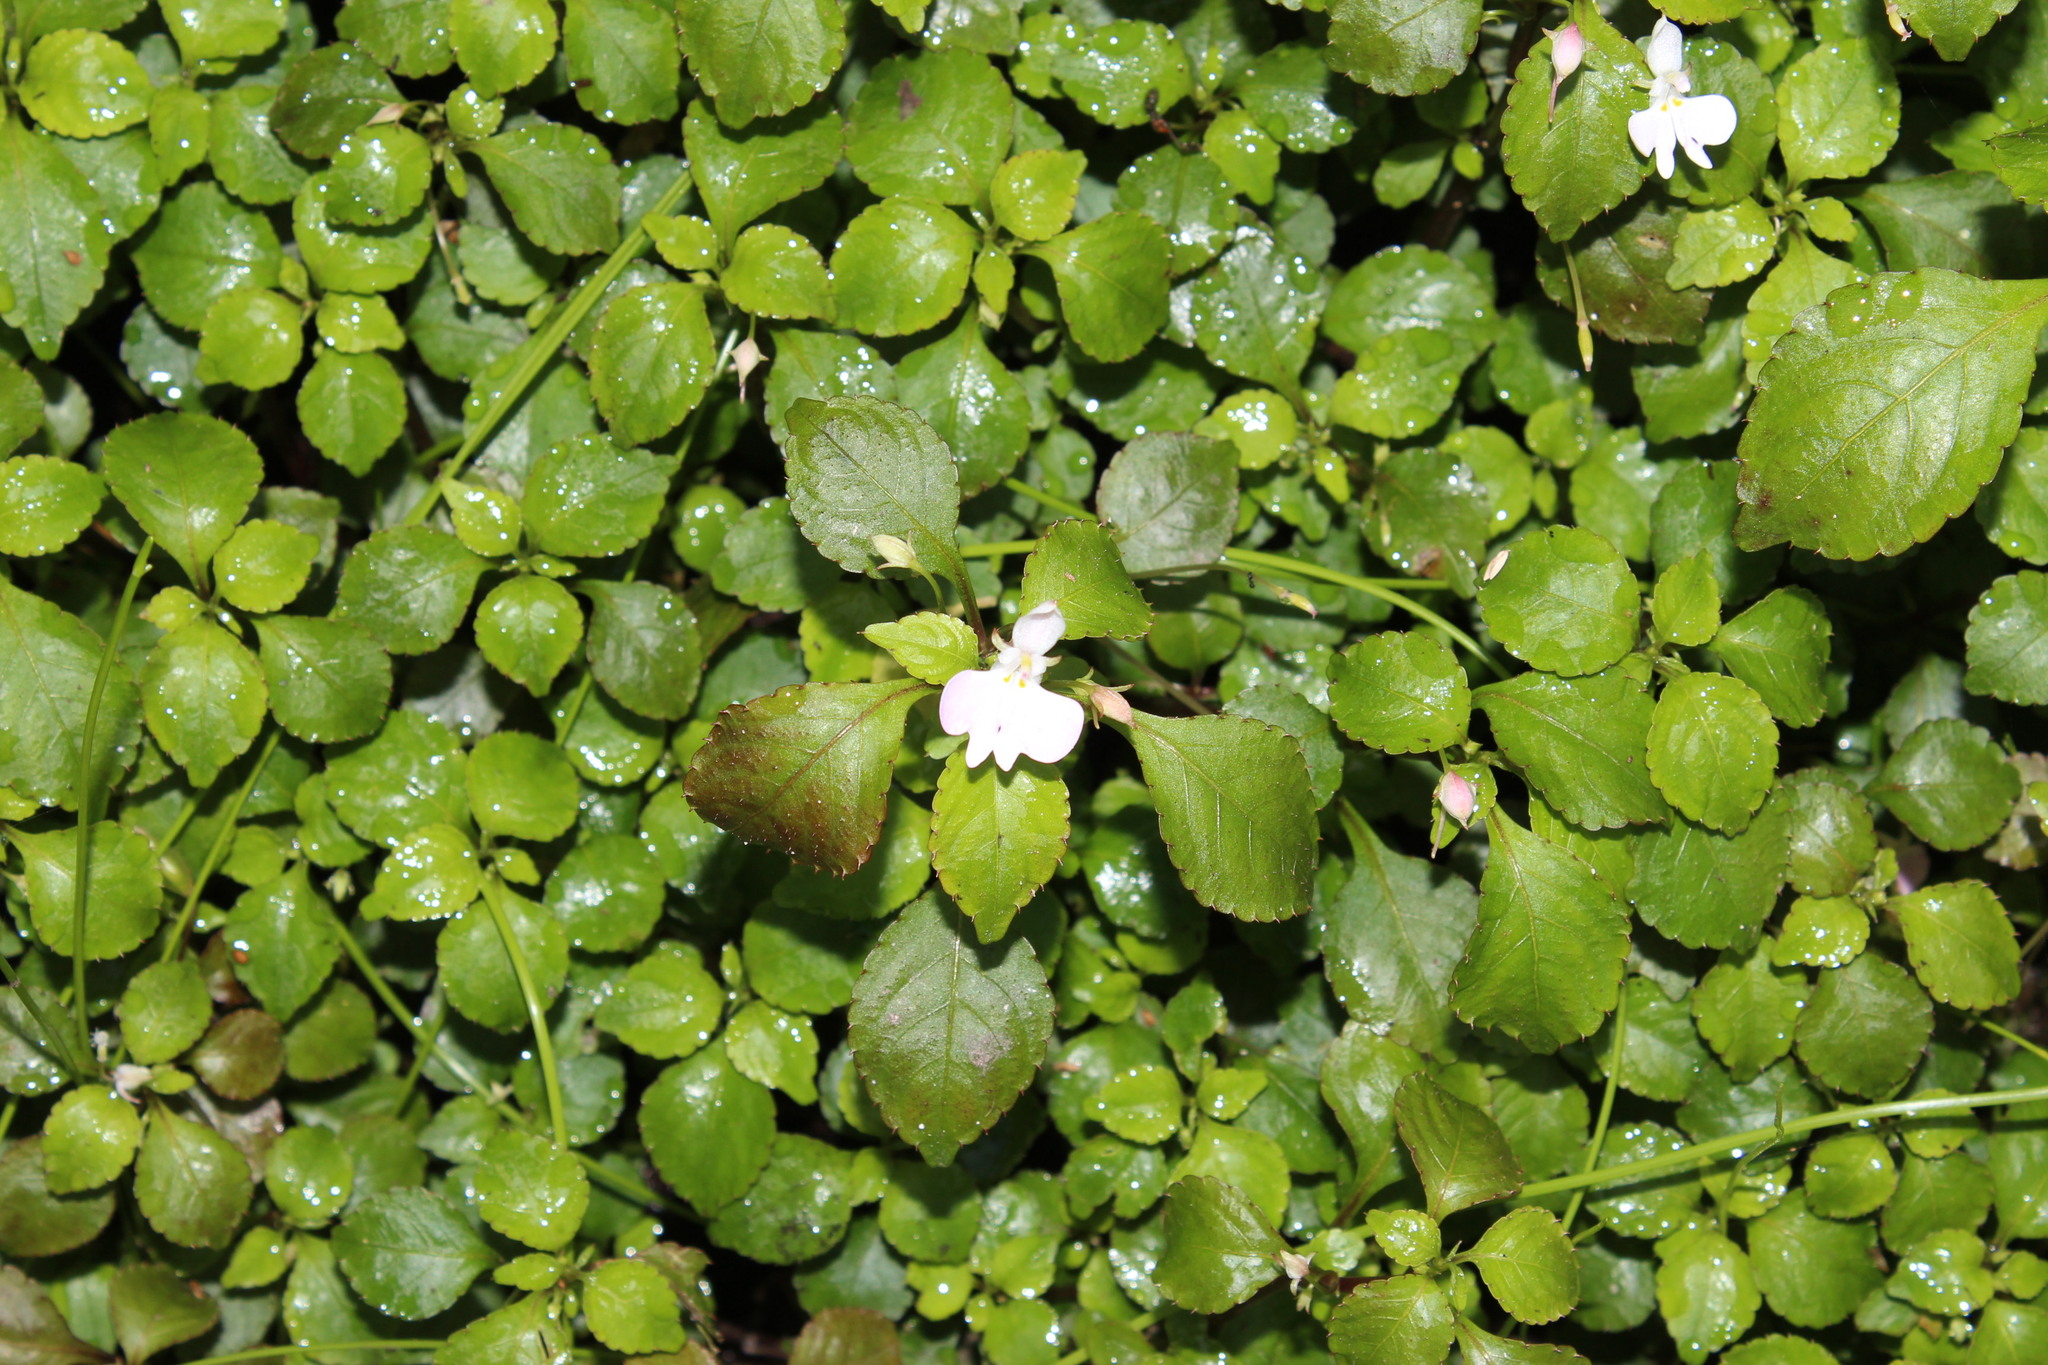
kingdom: Plantae
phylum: Tracheophyta
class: Magnoliopsida
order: Ericales
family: Balsaminaceae
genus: Impatiens
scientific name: Impatiens hochstetteri
